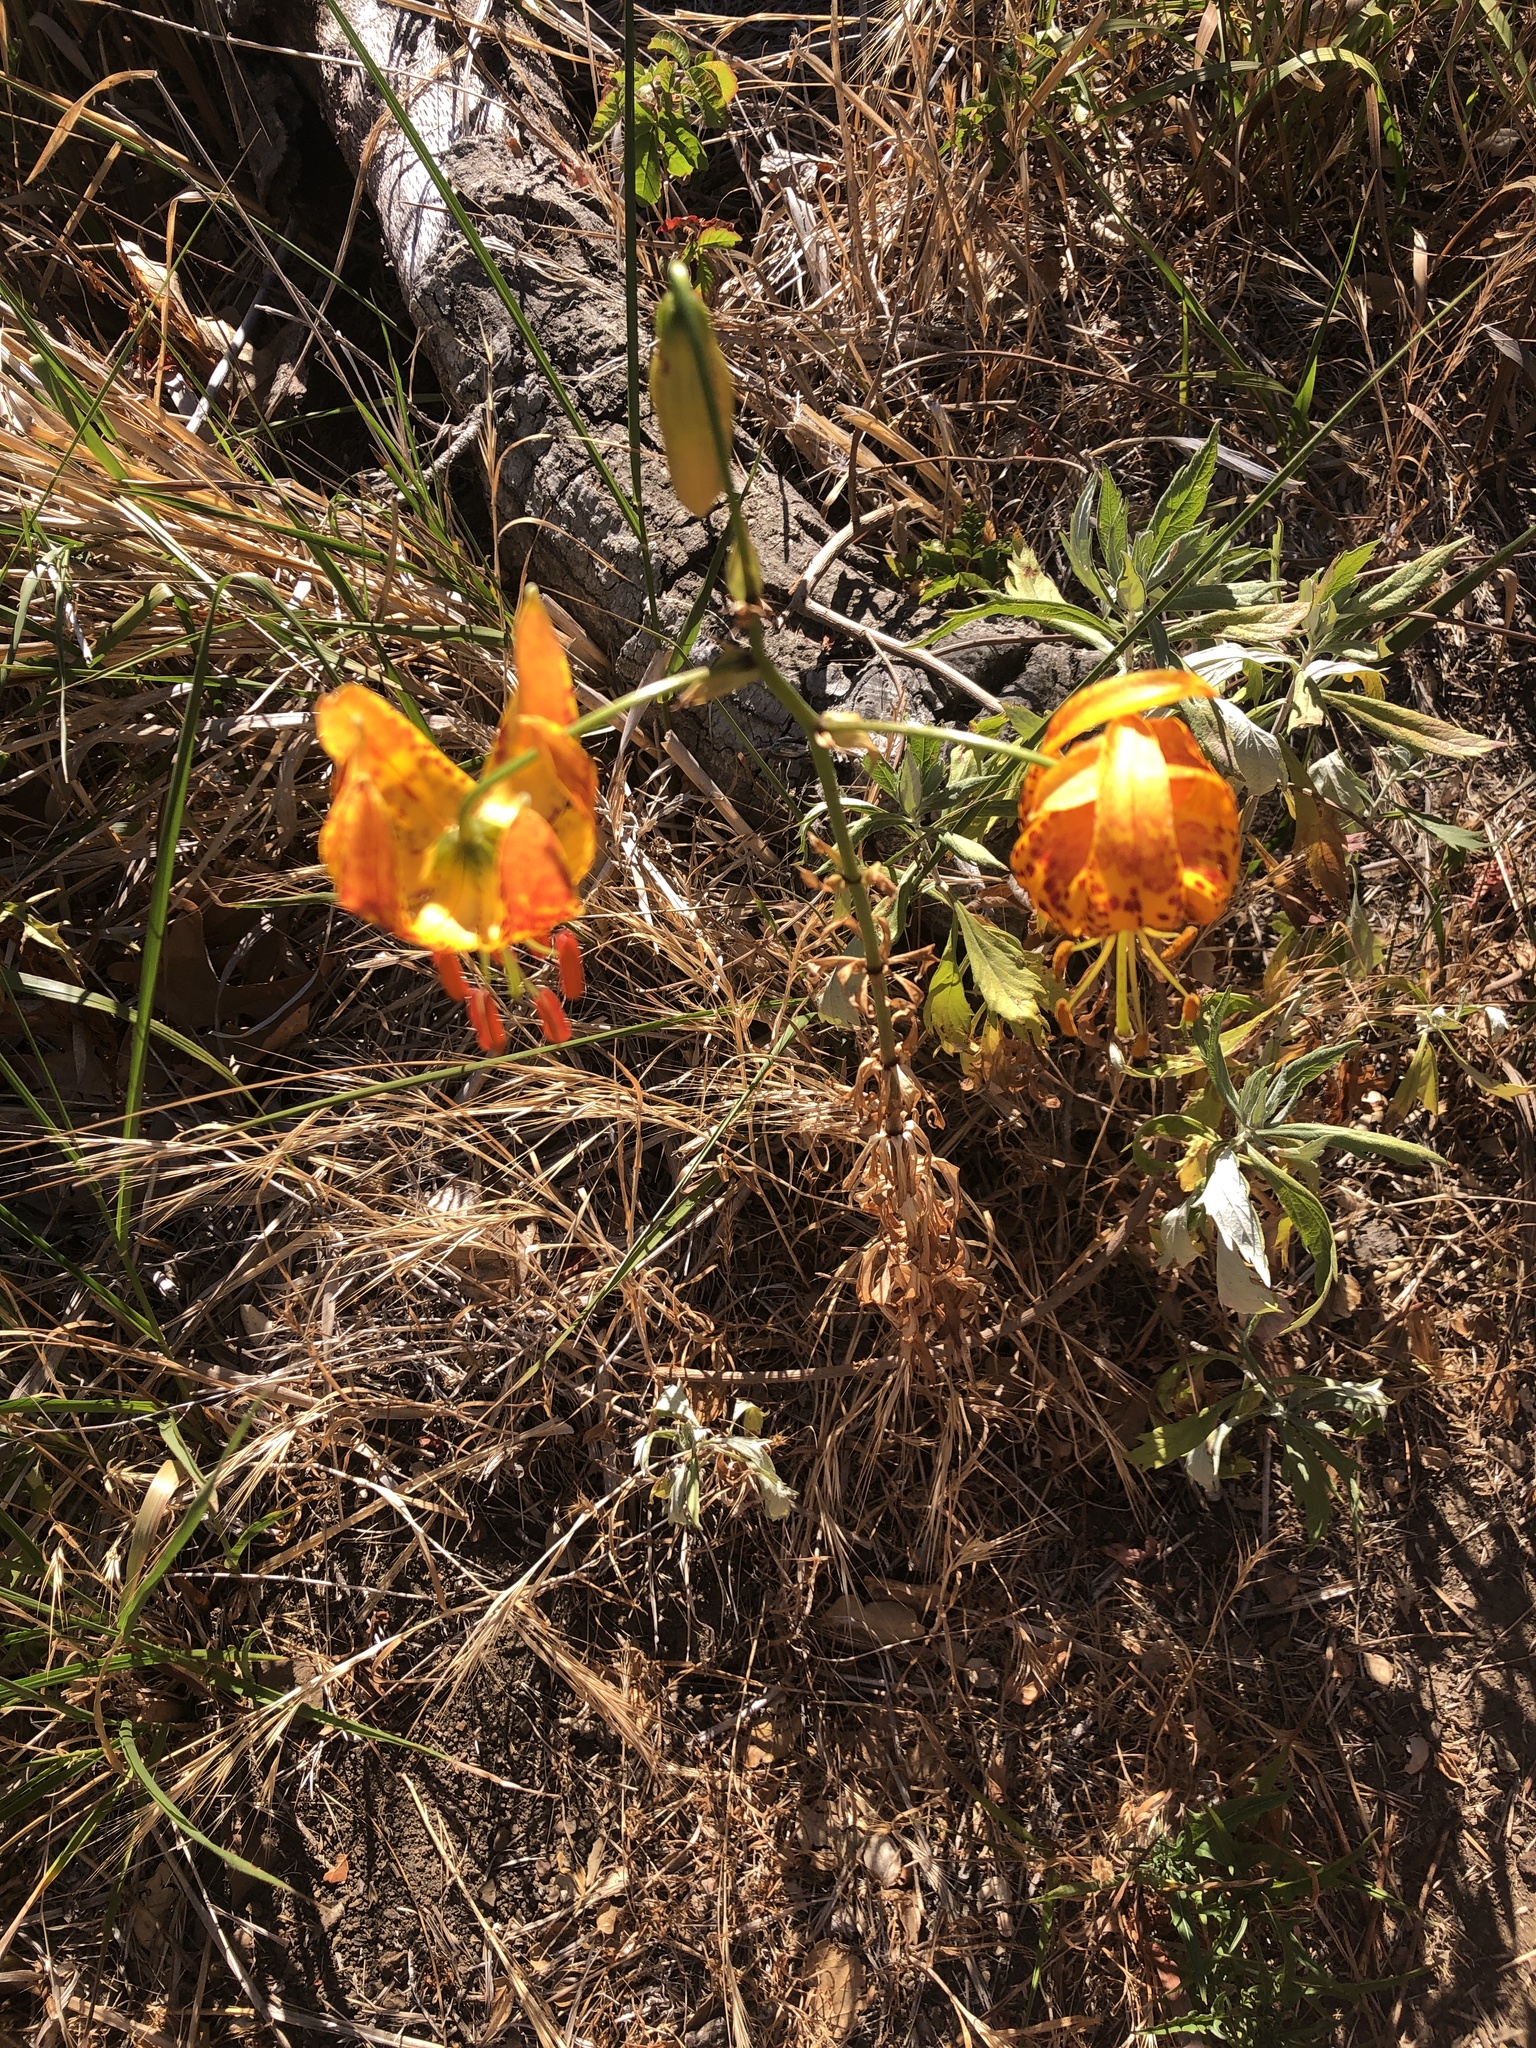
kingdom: Plantae
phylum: Tracheophyta
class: Liliopsida
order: Liliales
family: Liliaceae
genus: Lilium
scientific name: Lilium humboldtii
